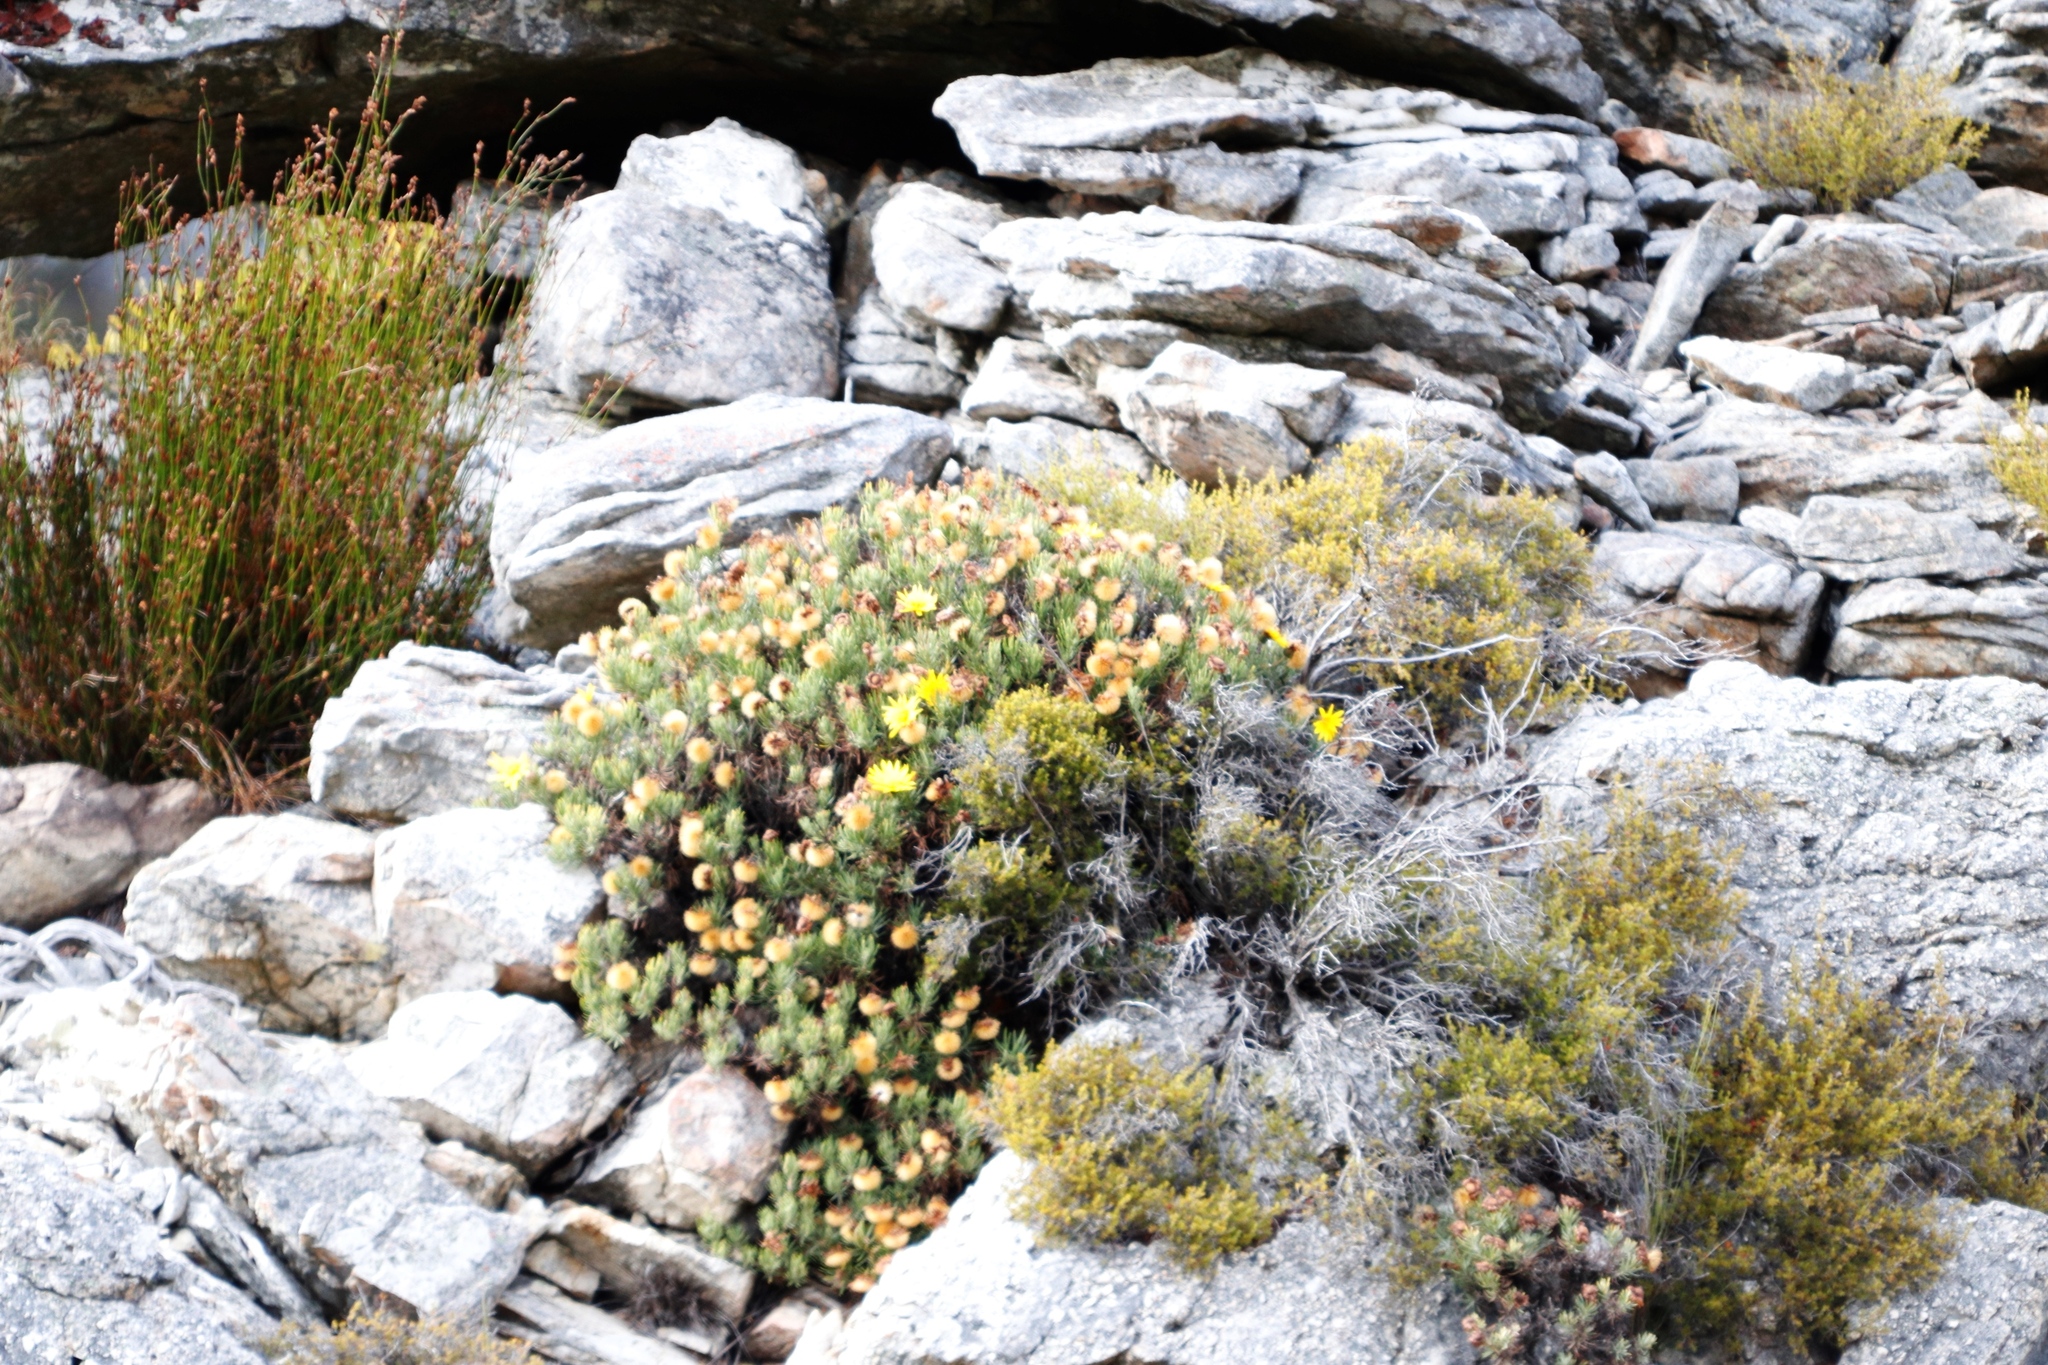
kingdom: Plantae
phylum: Tracheophyta
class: Magnoliopsida
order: Asterales
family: Asteraceae
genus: Heterolepis
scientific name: Heterolepis aliena
